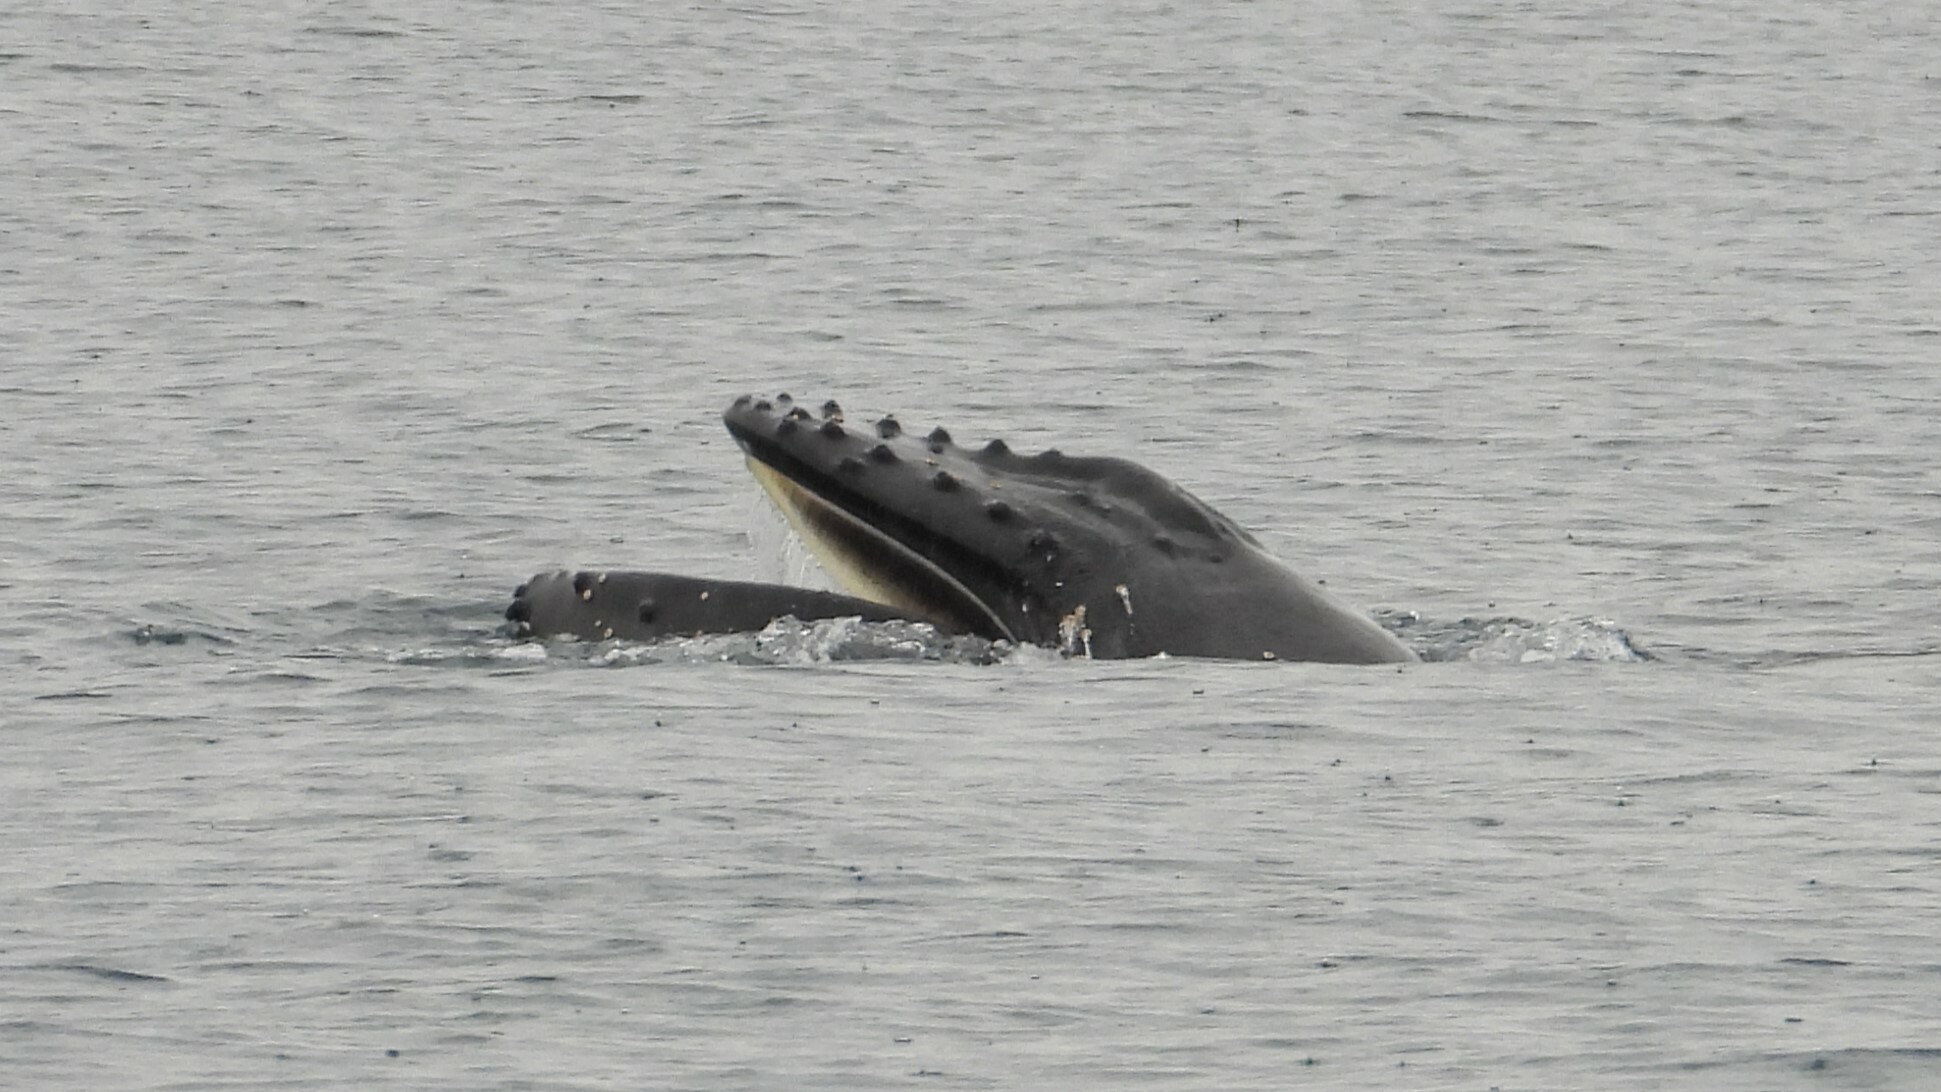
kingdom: Animalia
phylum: Chordata
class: Mammalia
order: Cetacea
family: Balaenopteridae
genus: Megaptera
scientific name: Megaptera novaeangliae
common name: Humpback whale
